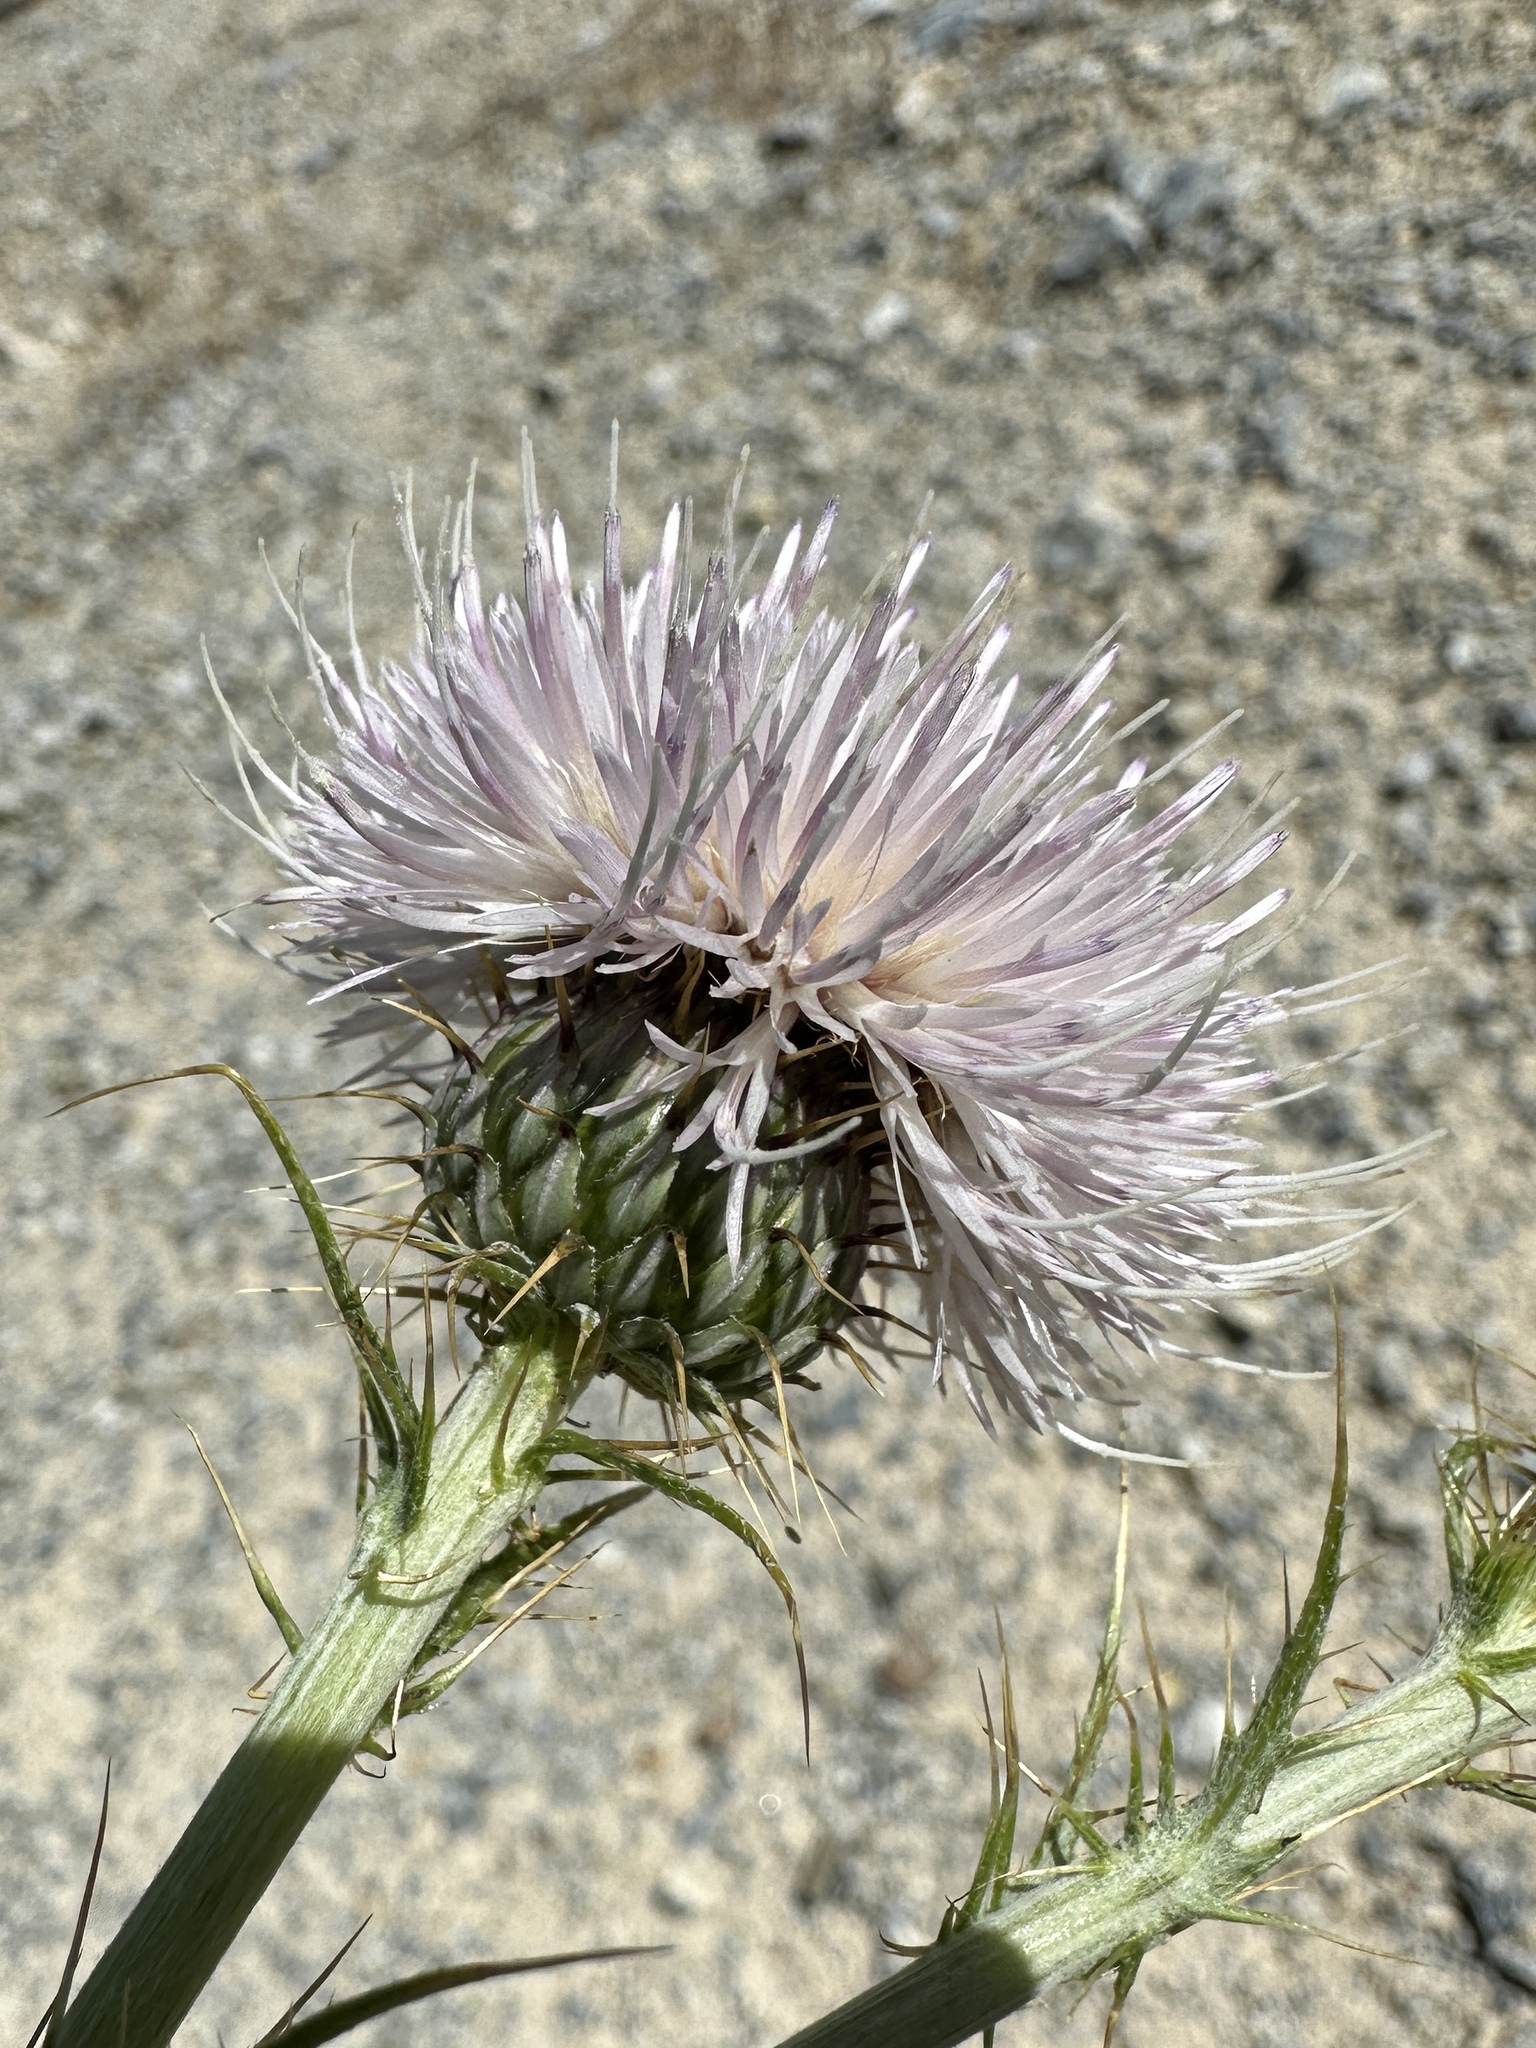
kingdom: Plantae
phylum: Tracheophyta
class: Magnoliopsida
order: Asterales
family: Asteraceae
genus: Cirsium
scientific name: Cirsium mohavense
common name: Mojave thistle
